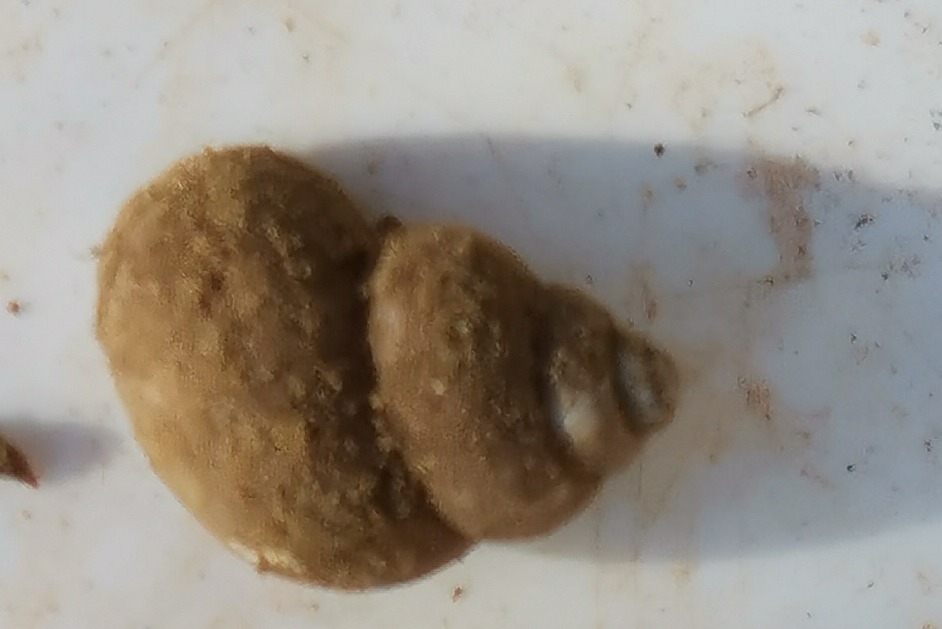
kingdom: Animalia
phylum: Mollusca
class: Gastropoda
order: Littorinimorpha
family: Pomatiidae
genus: Pomatias
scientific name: Pomatias elegans
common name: Red-mouthed snail
